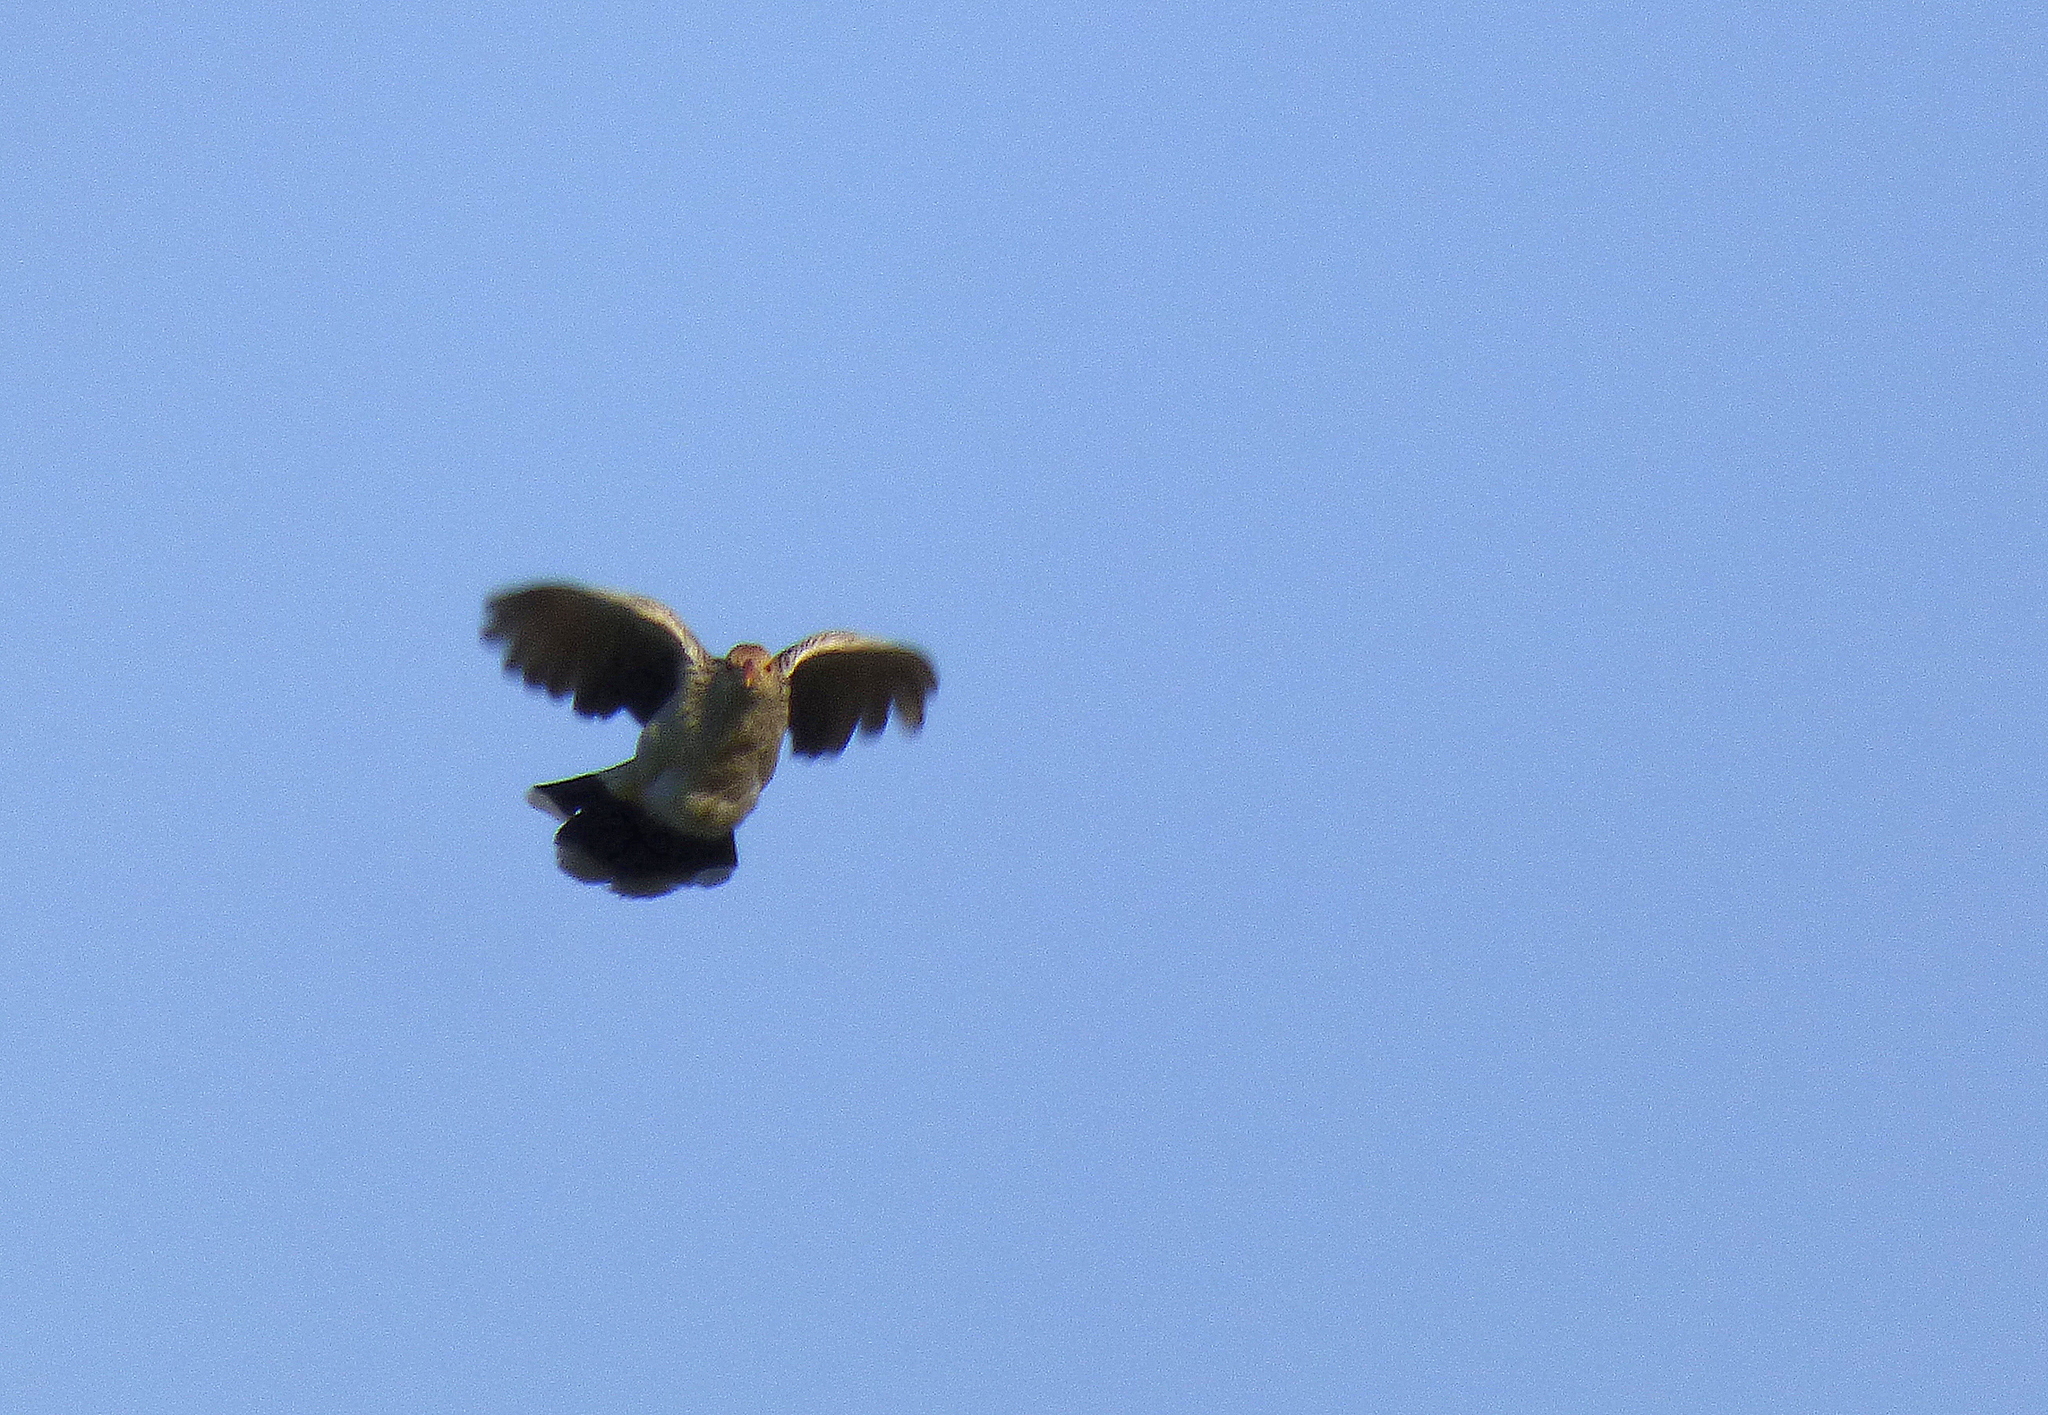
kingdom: Animalia
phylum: Chordata
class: Aves
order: Cuculiformes
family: Cuculidae
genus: Guira
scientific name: Guira guira
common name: Guira cuckoo
